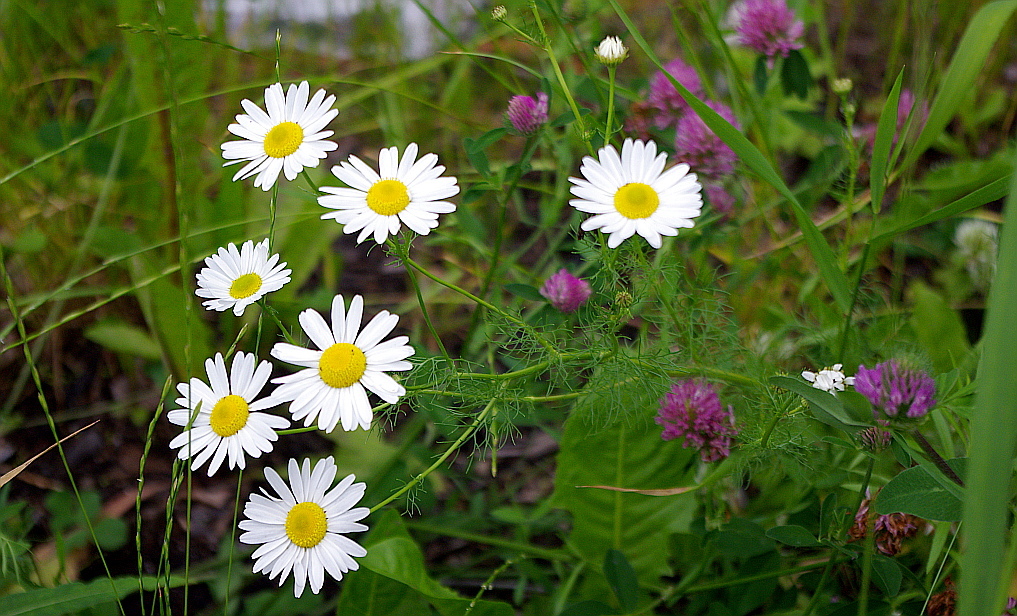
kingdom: Plantae
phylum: Tracheophyta
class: Magnoliopsida
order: Asterales
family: Asteraceae
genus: Tripleurospermum
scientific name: Tripleurospermum inodorum
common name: Scentless mayweed
